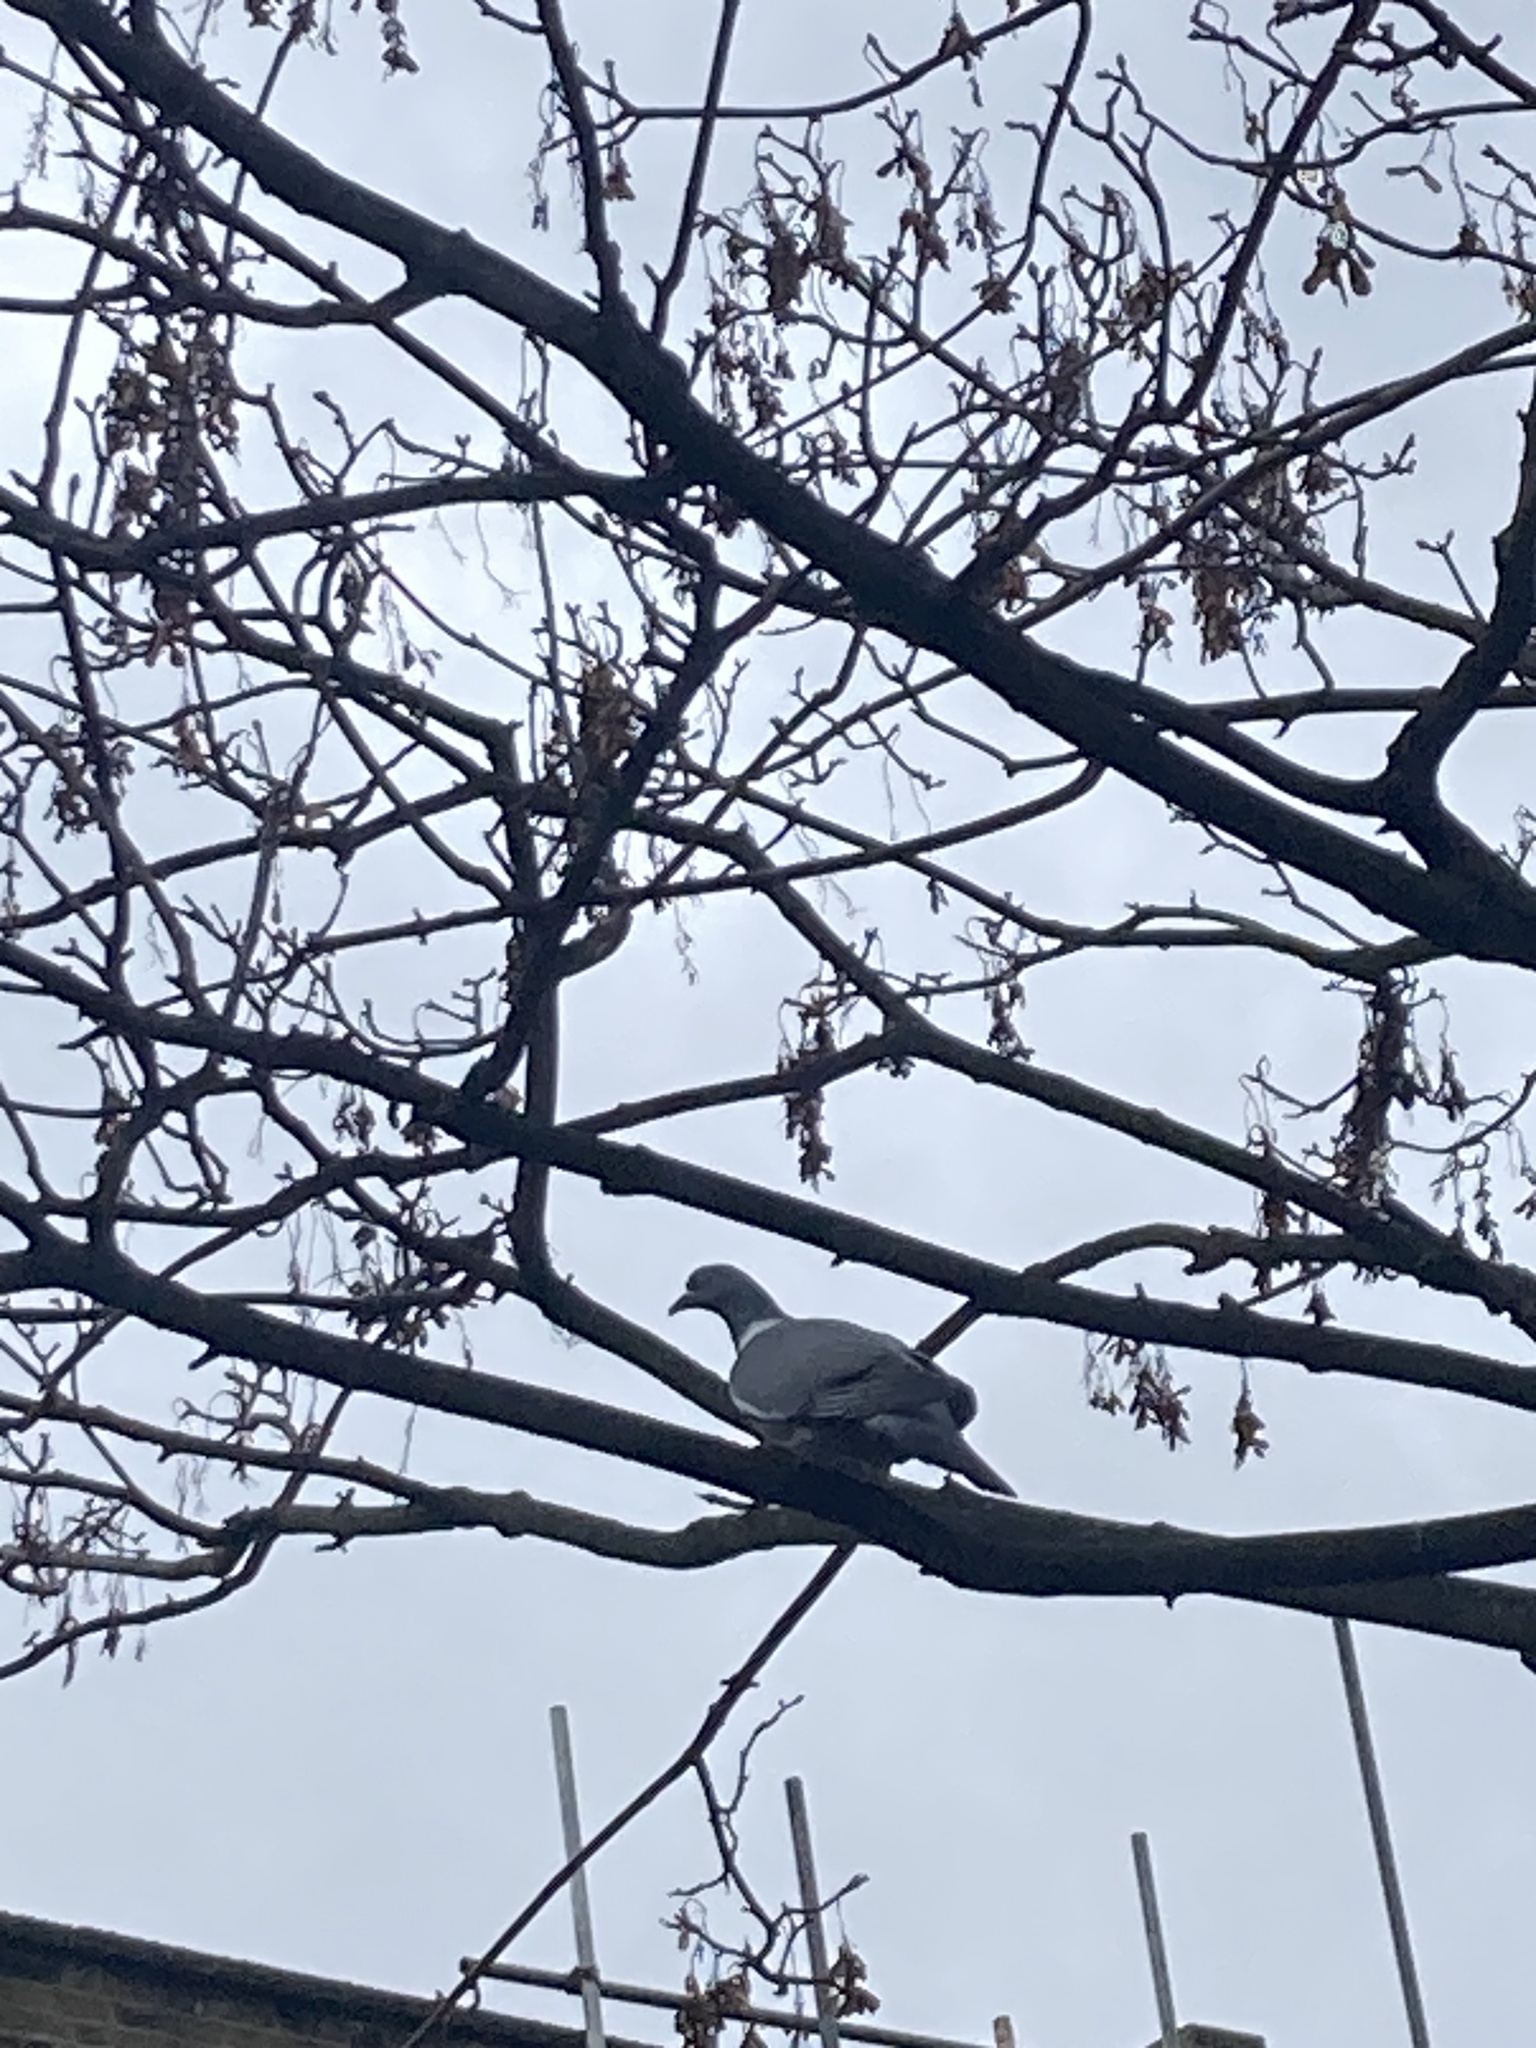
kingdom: Animalia
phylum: Chordata
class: Aves
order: Columbiformes
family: Columbidae
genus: Columba
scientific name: Columba palumbus
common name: Common wood pigeon
